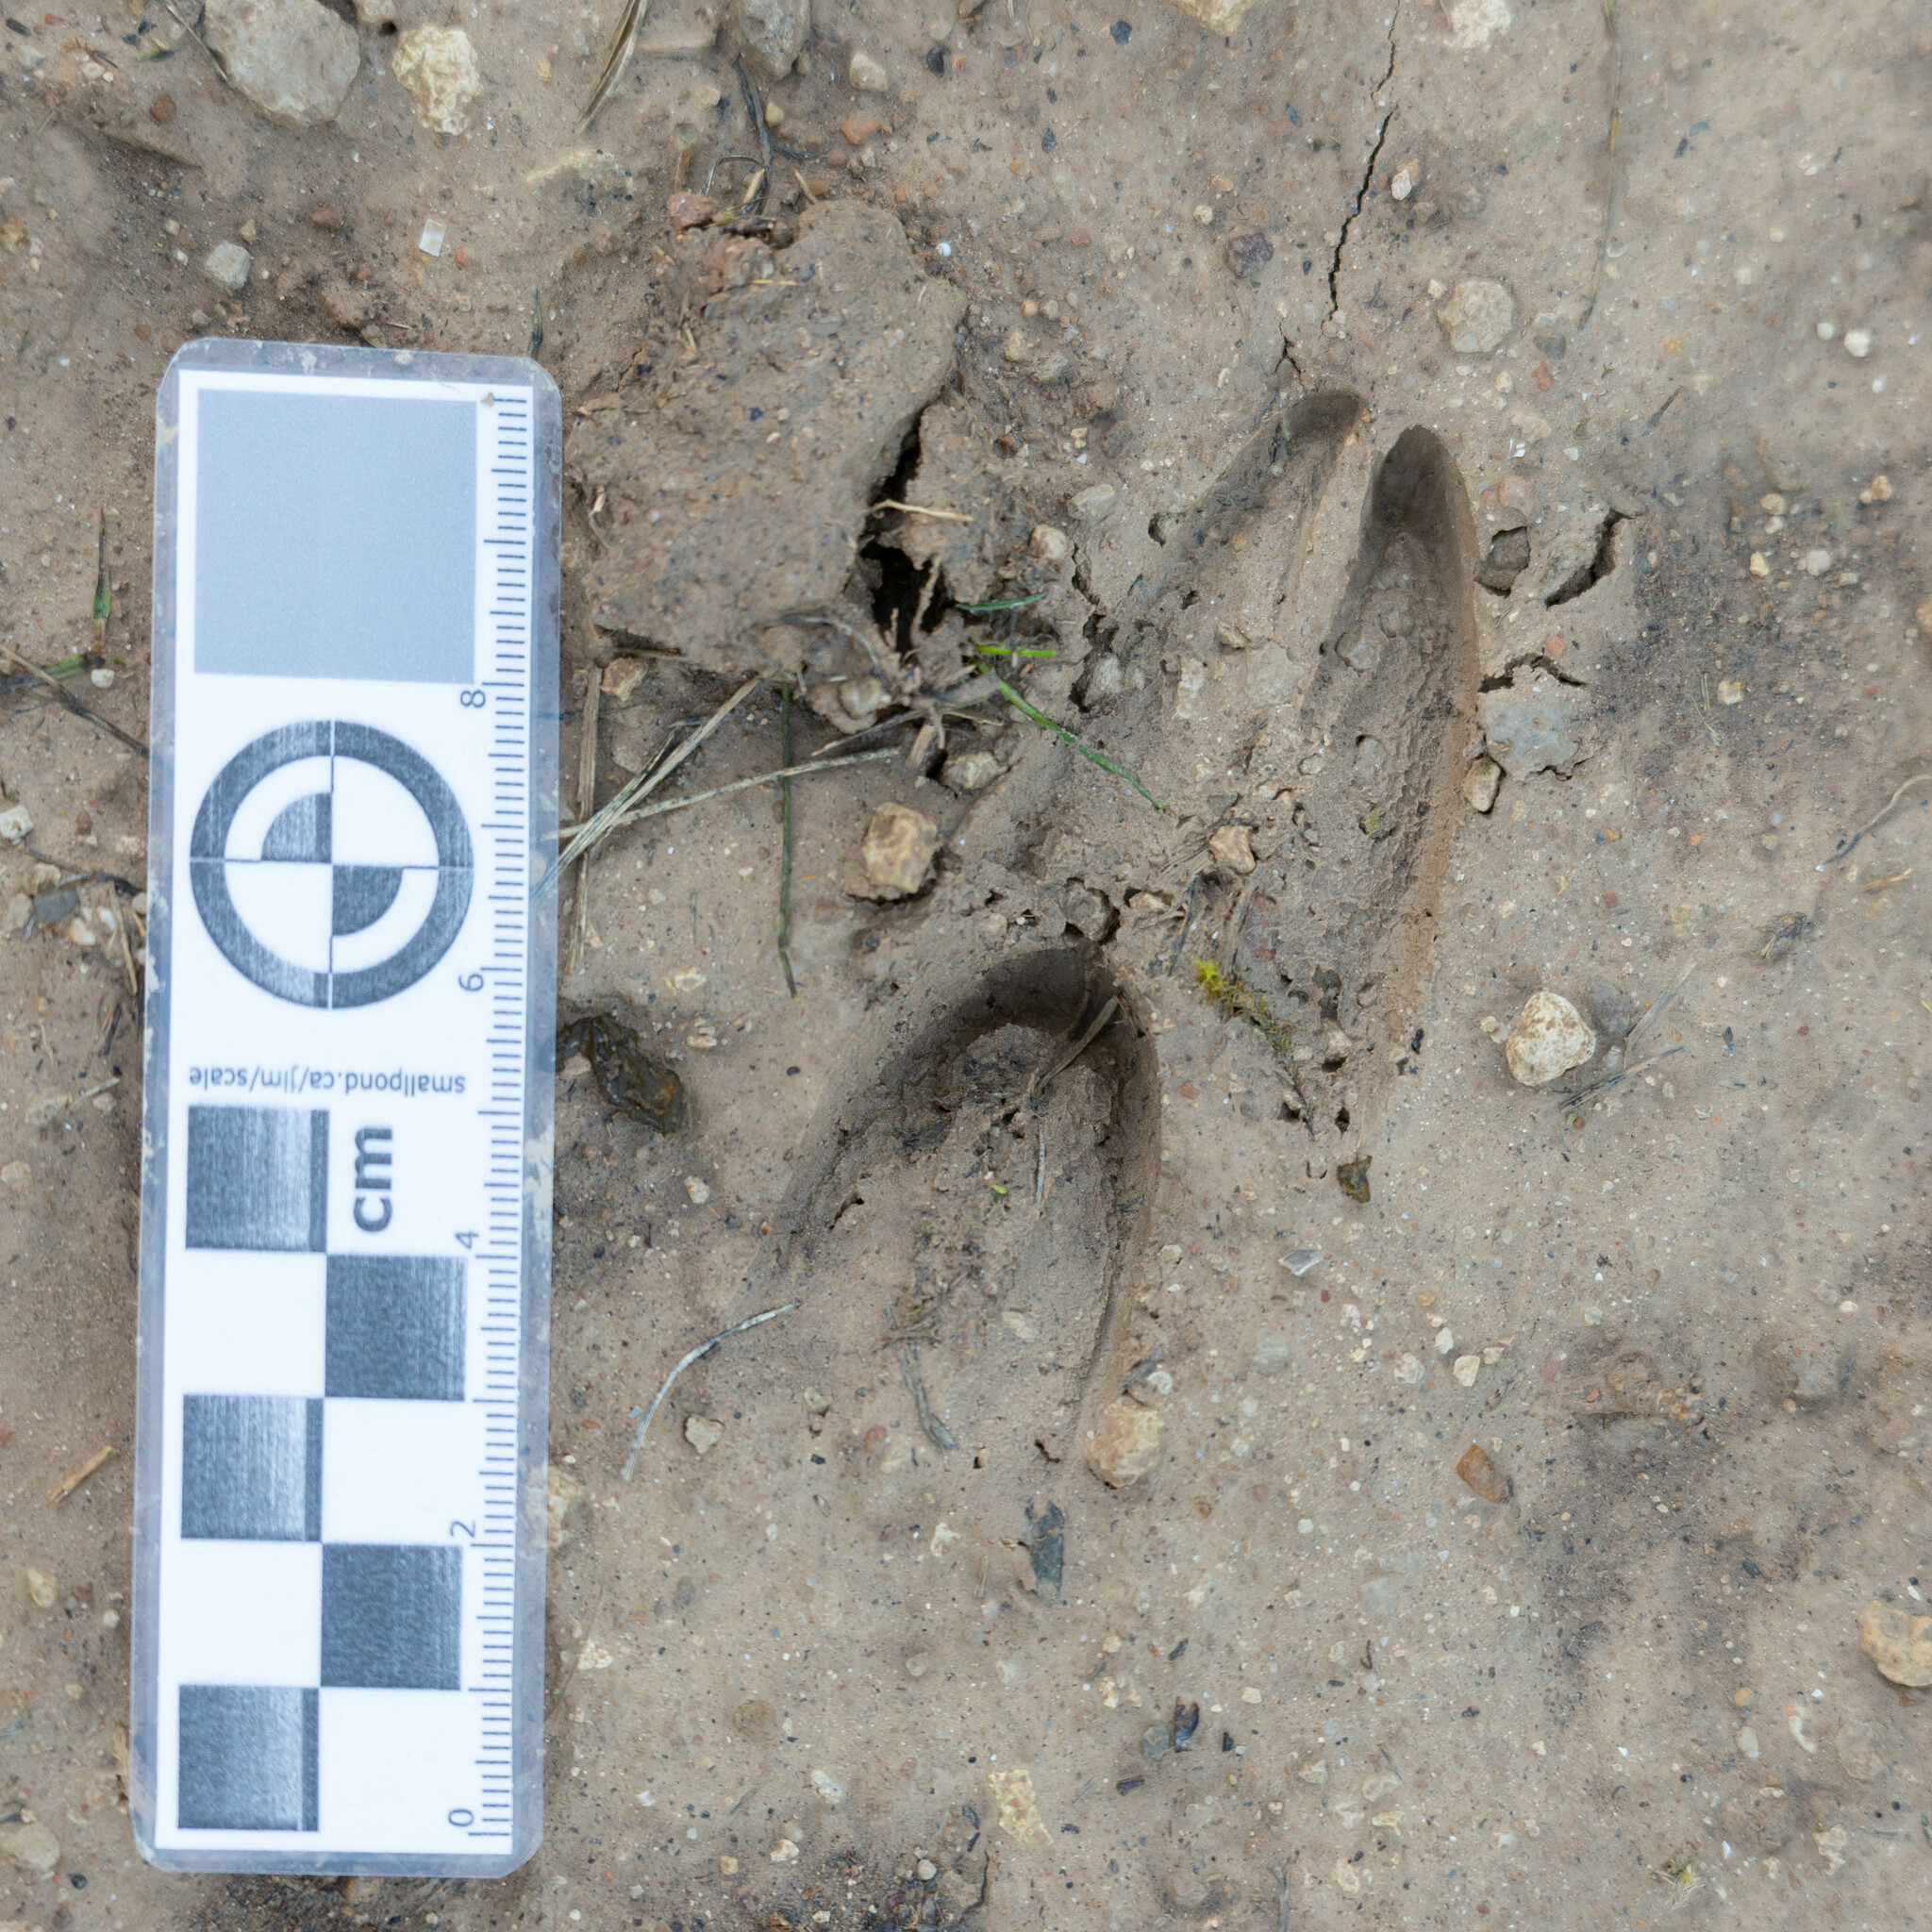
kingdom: Animalia
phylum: Chordata
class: Mammalia
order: Artiodactyla
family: Cervidae
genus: Capreolus
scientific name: Capreolus capreolus
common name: Western roe deer
